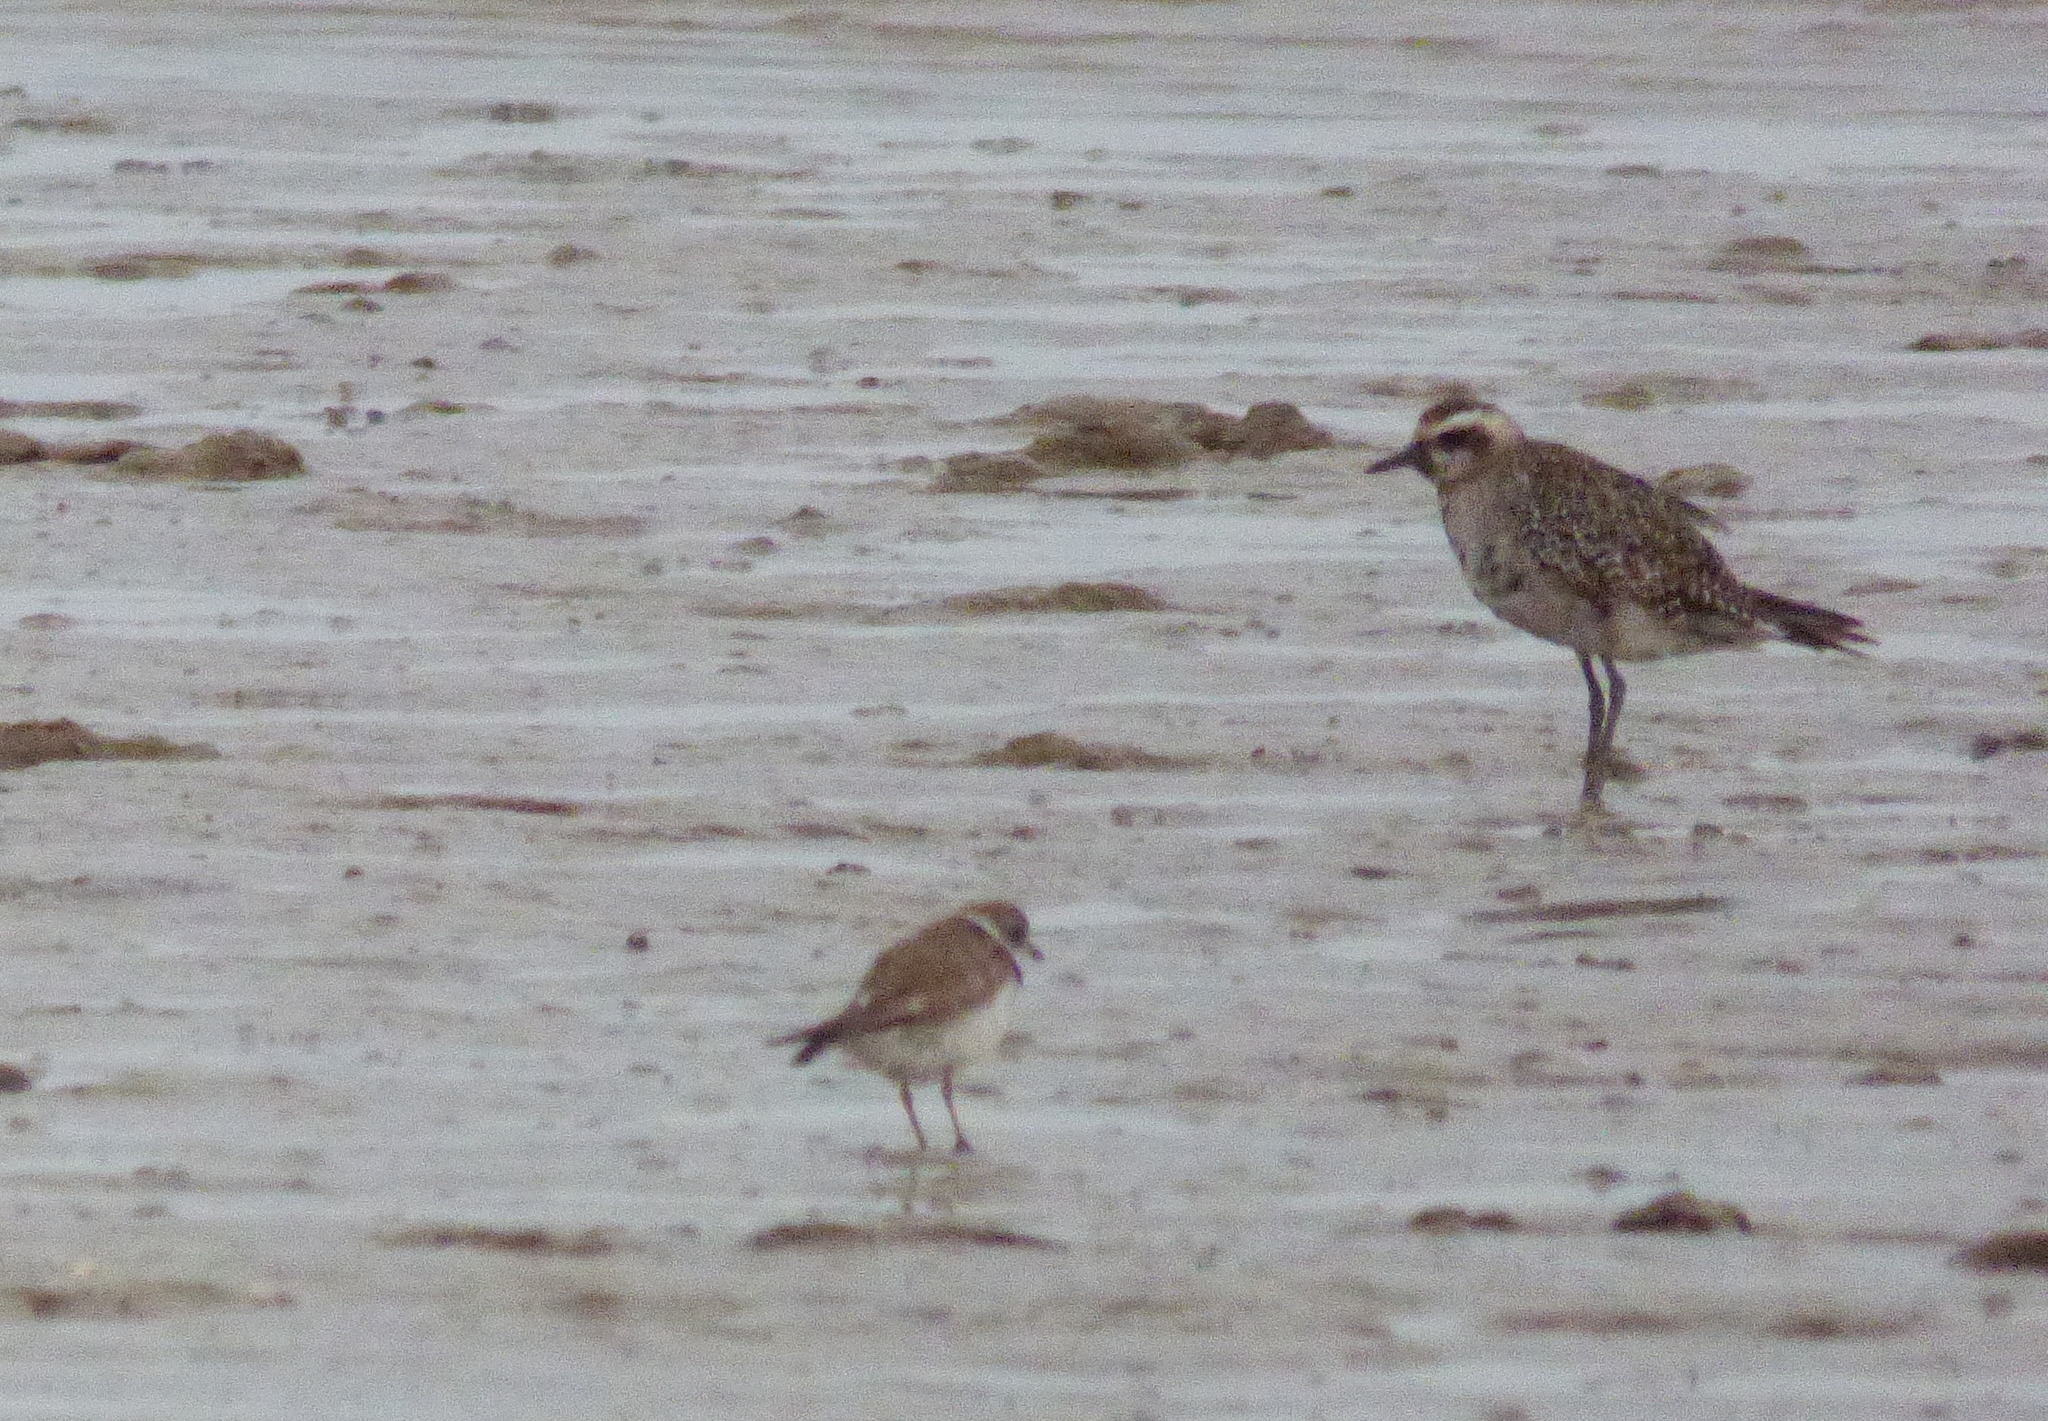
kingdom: Animalia
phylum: Chordata
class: Aves
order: Charadriiformes
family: Charadriidae
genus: Pluvialis
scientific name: Pluvialis dominica
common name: American golden plover
